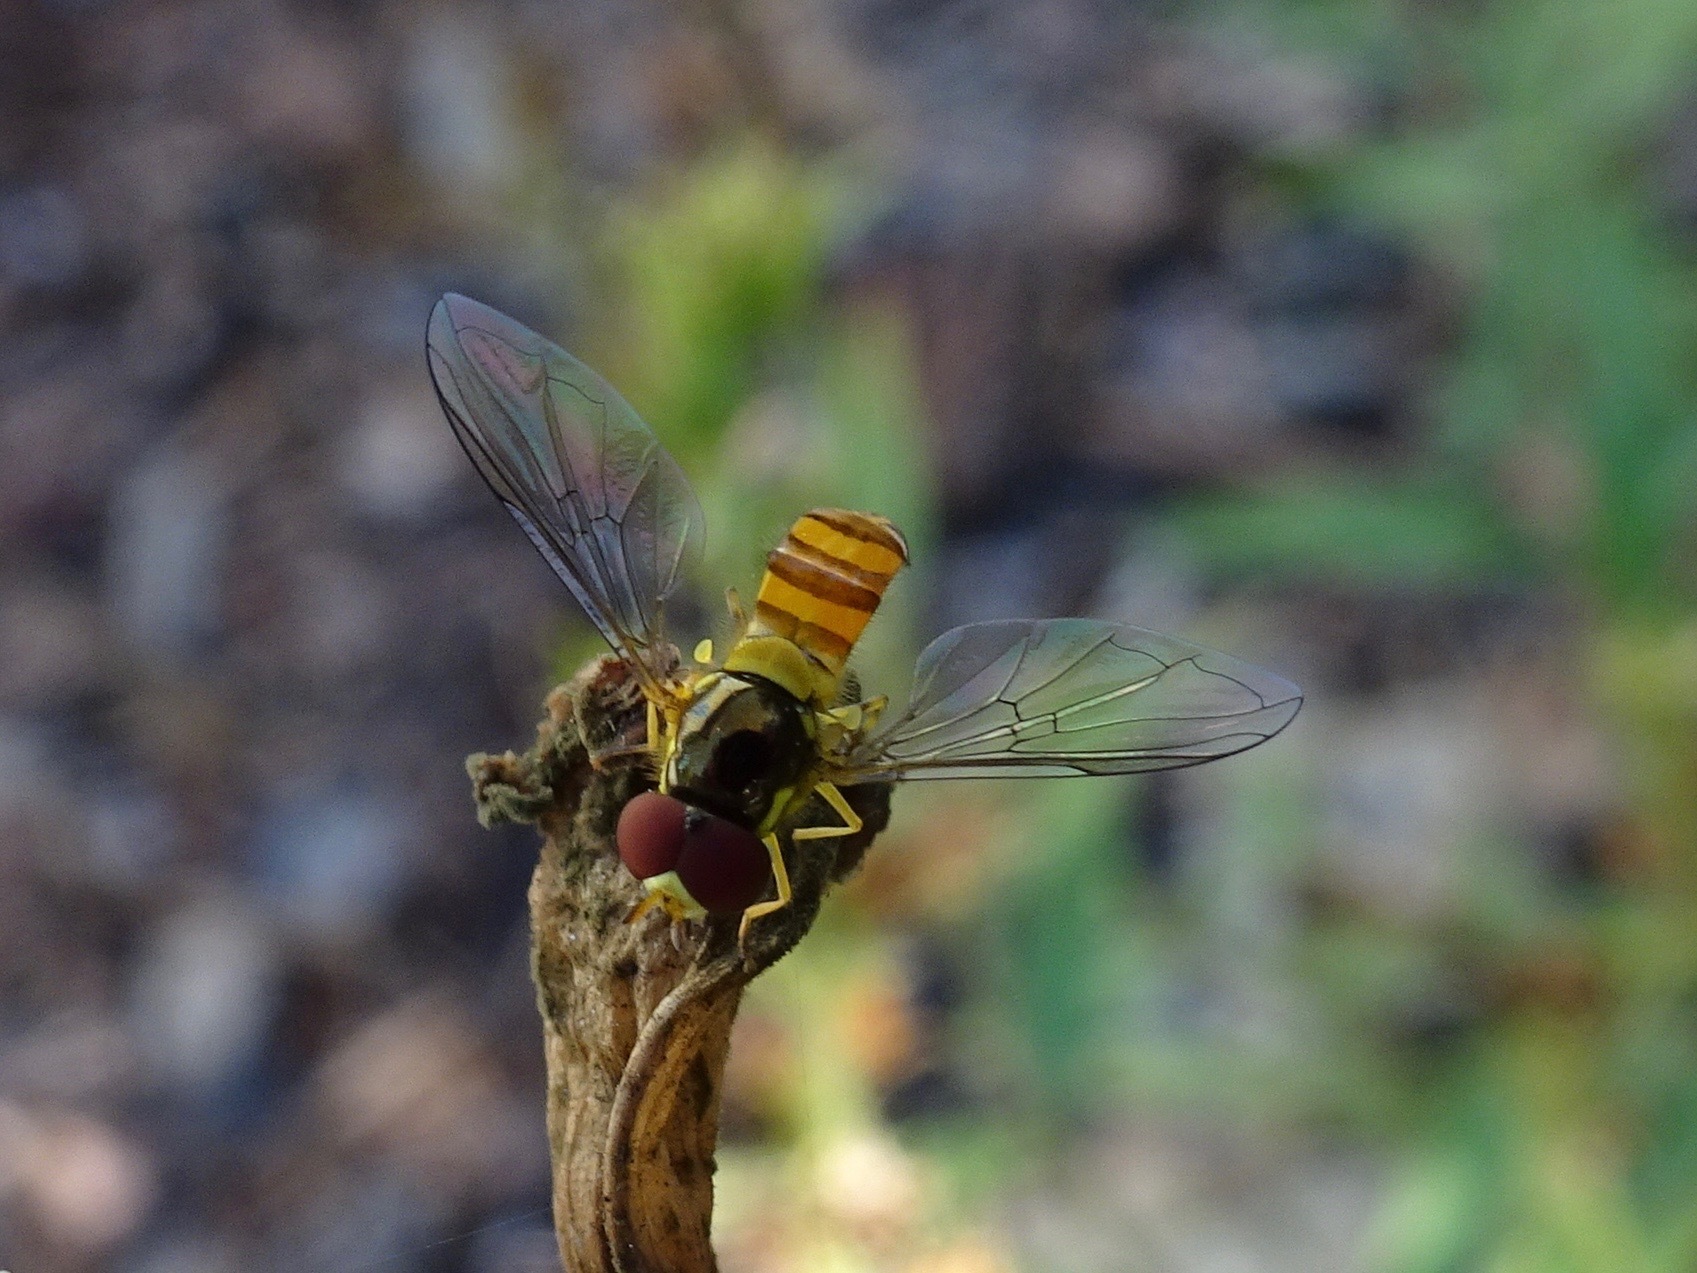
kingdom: Animalia
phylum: Arthropoda
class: Insecta
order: Diptera
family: Syrphidae
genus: Allograpta
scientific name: Allograpta obliqua
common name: Common oblique syrphid
